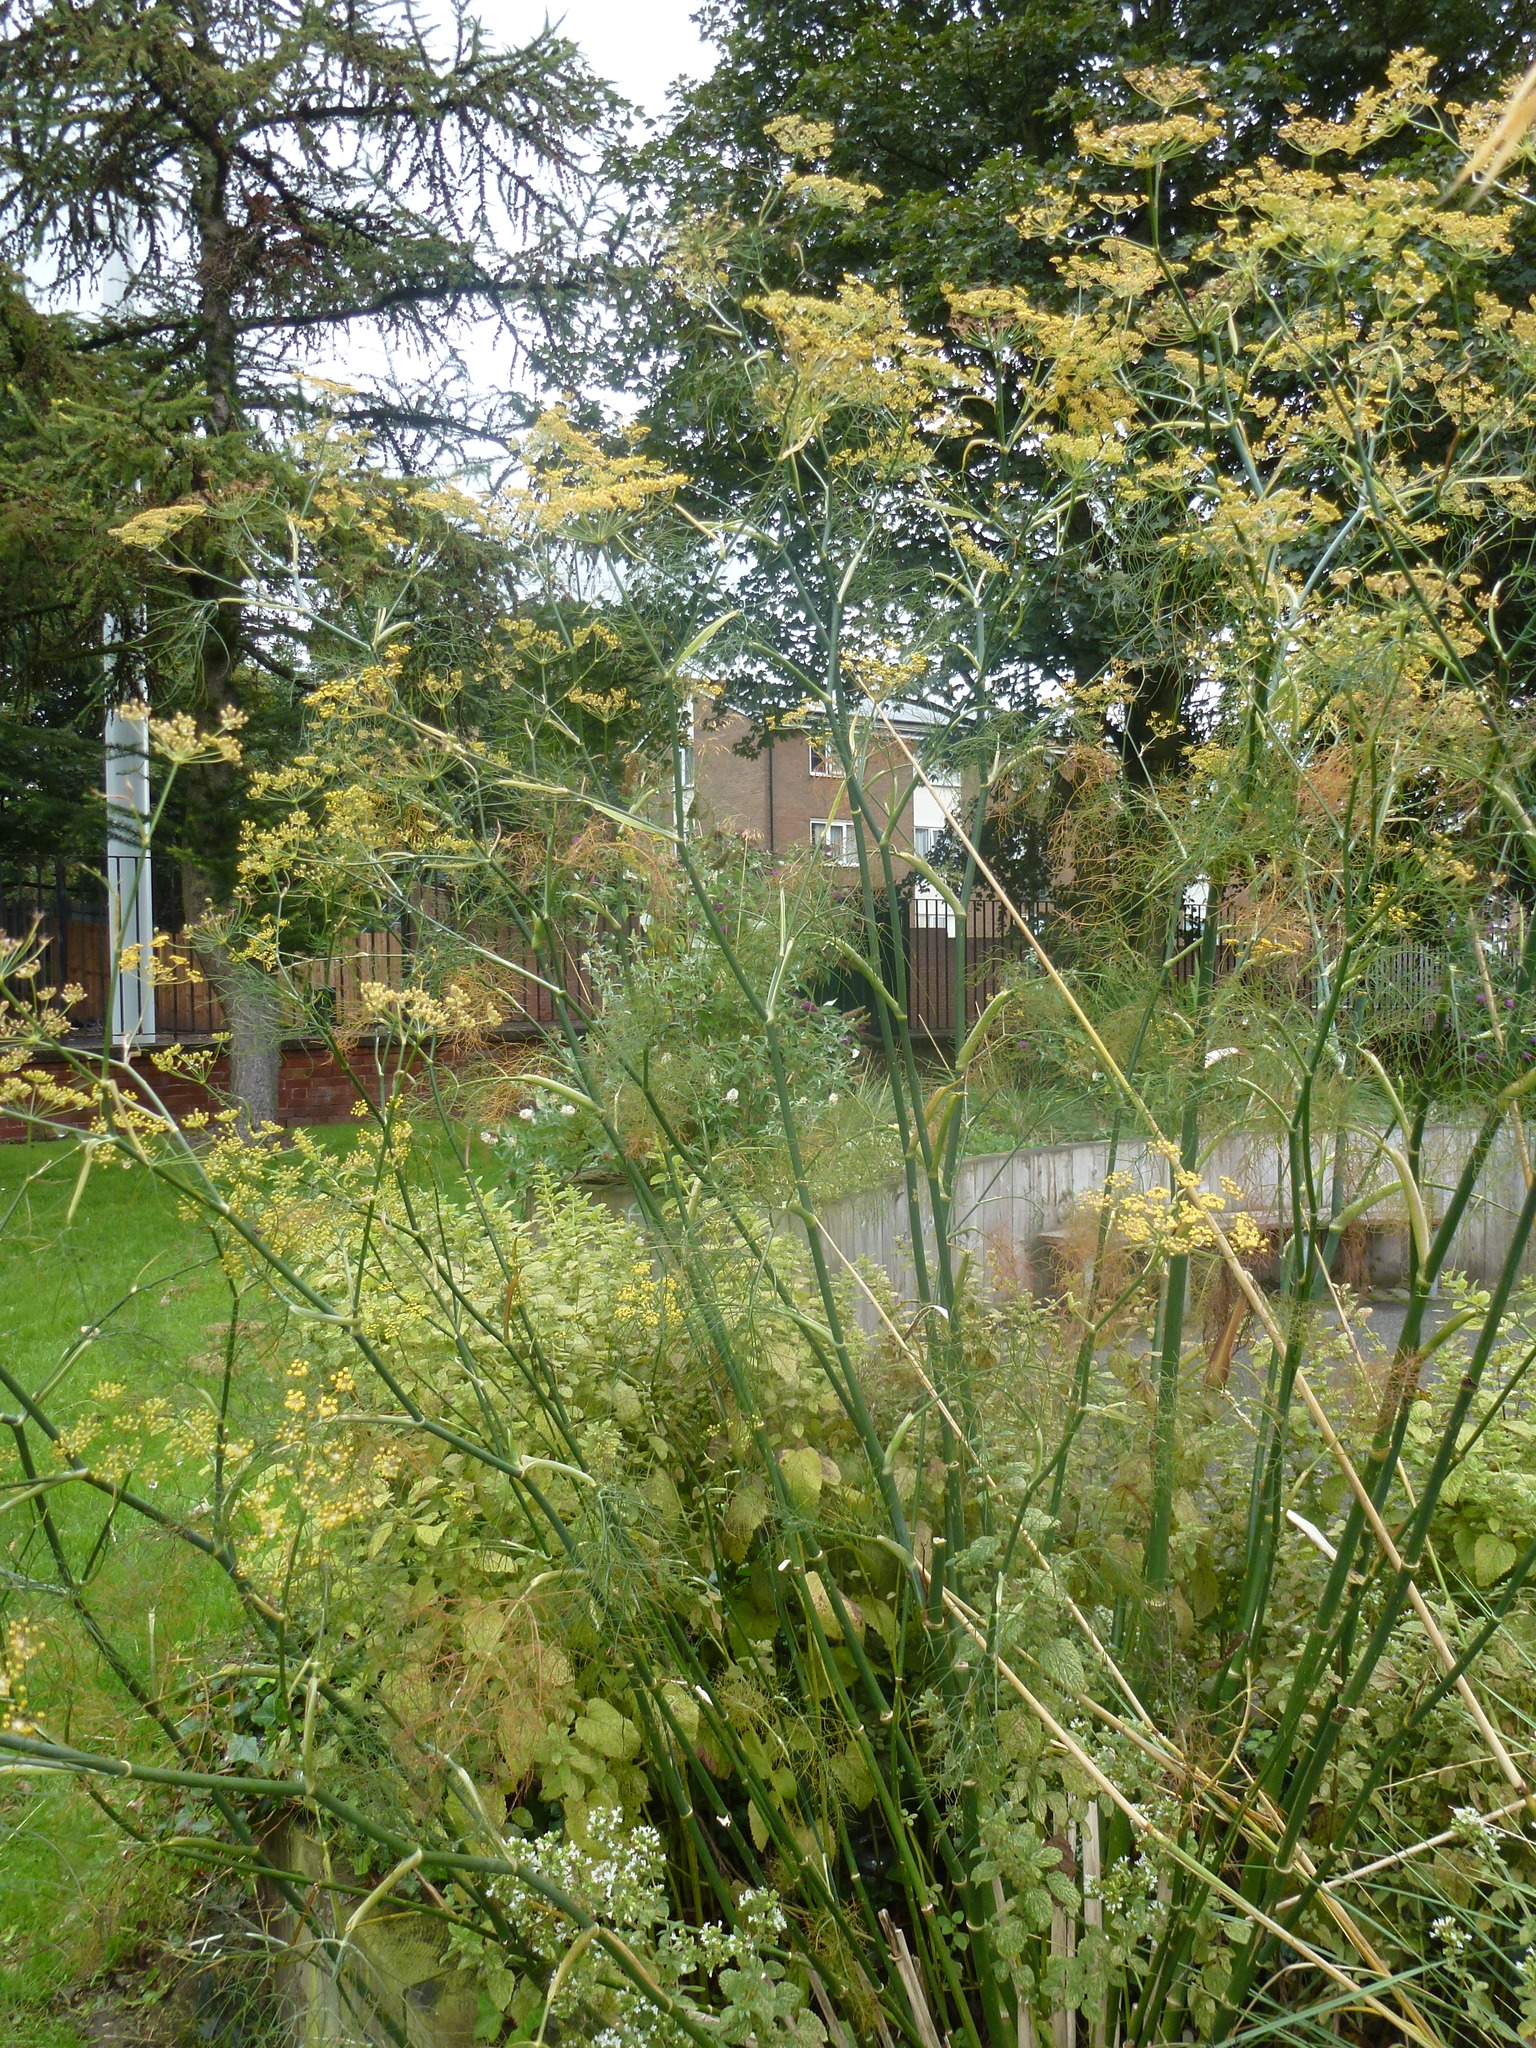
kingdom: Plantae
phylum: Tracheophyta
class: Magnoliopsida
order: Apiales
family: Apiaceae
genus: Foeniculum
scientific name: Foeniculum vulgare
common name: Fennel
